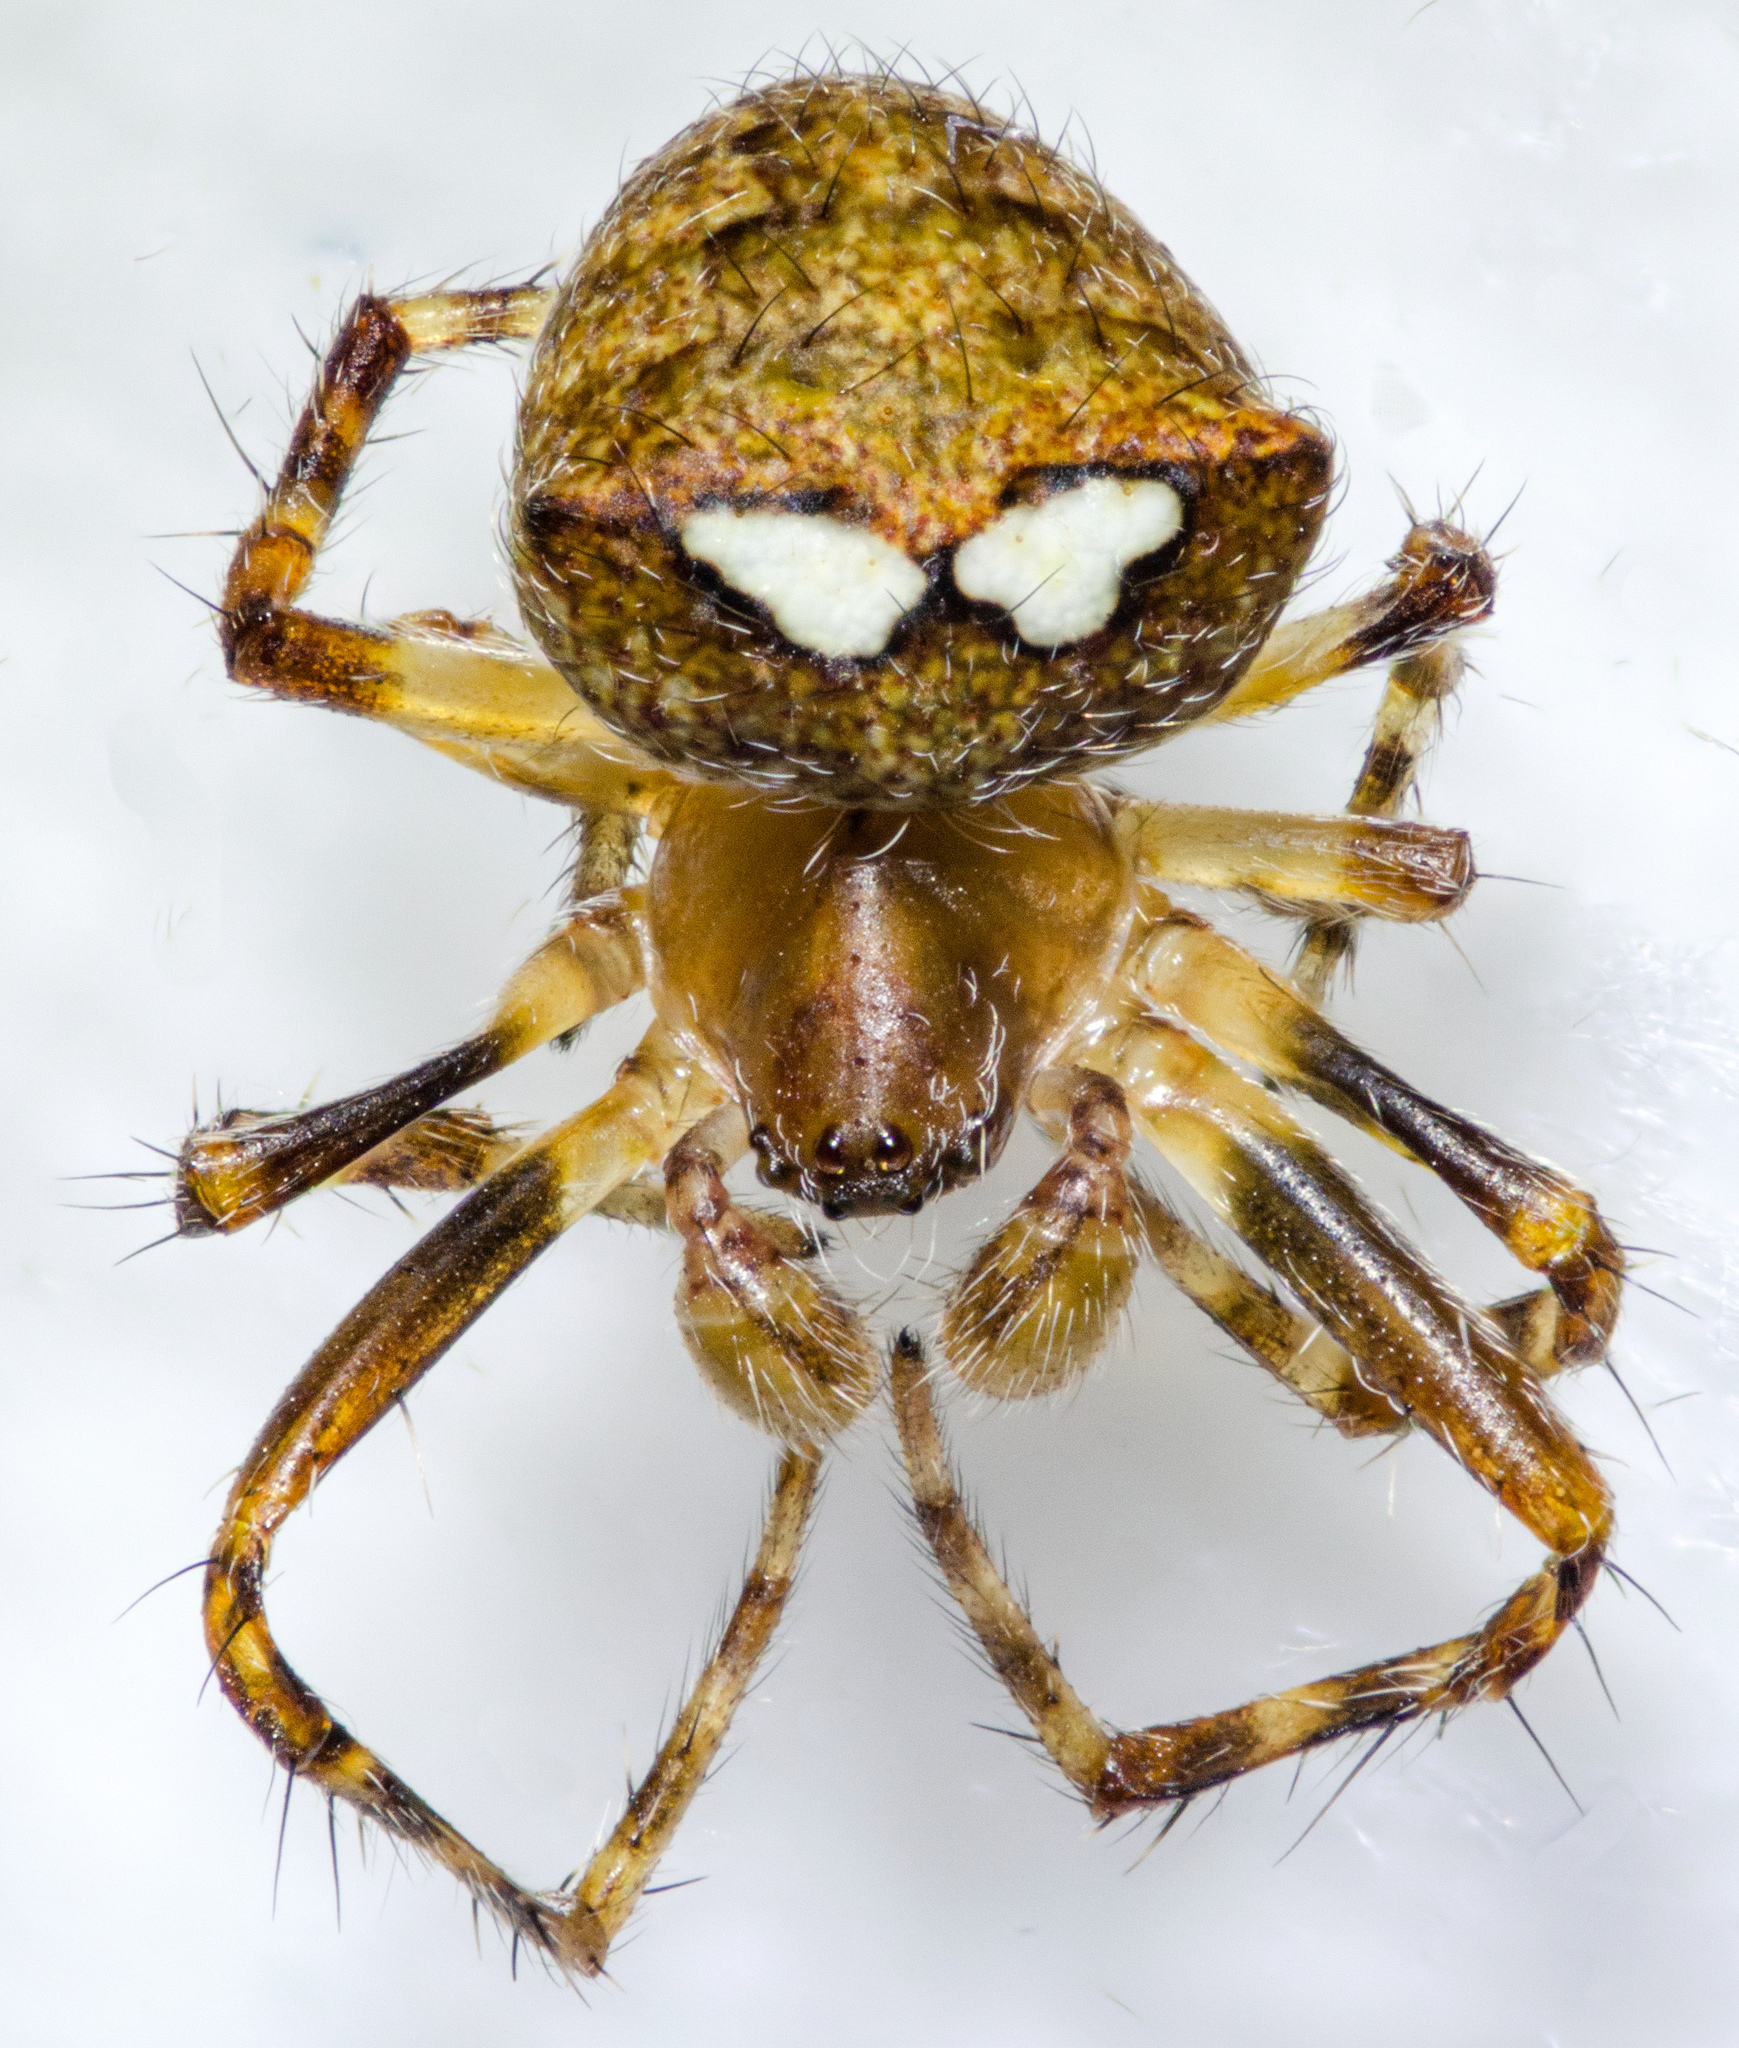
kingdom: Animalia
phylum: Arthropoda
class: Arachnida
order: Araneae
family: Araneidae
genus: Araneus
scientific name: Araneus bispinosus
